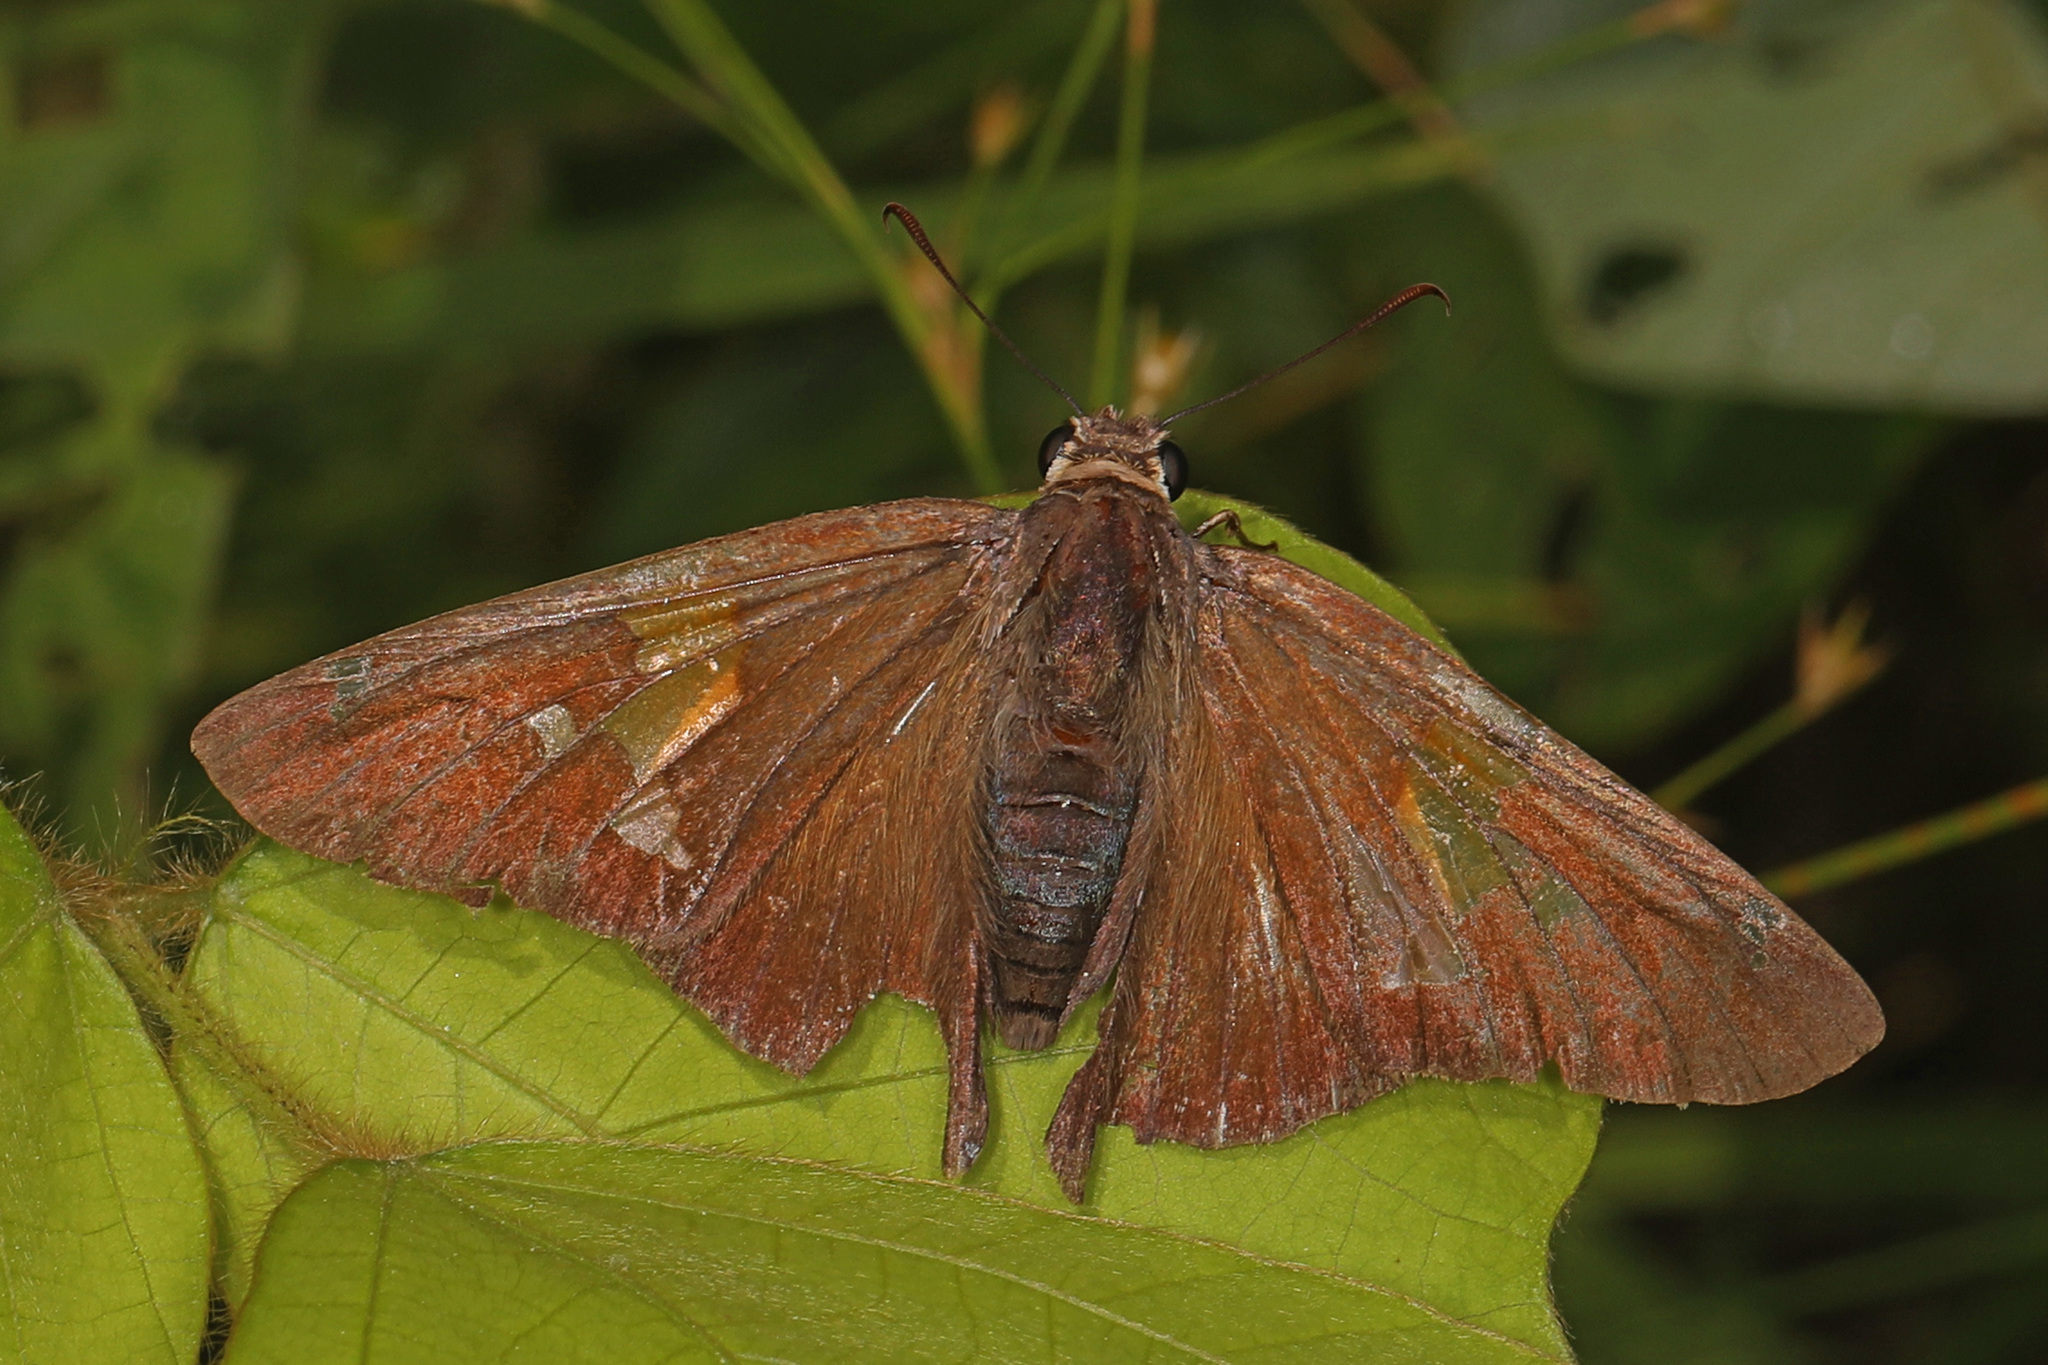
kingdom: Animalia
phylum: Arthropoda
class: Insecta
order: Lepidoptera
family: Hesperiidae
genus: Epargyreus
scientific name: Epargyreus clarus
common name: Silver-spotted skipper
